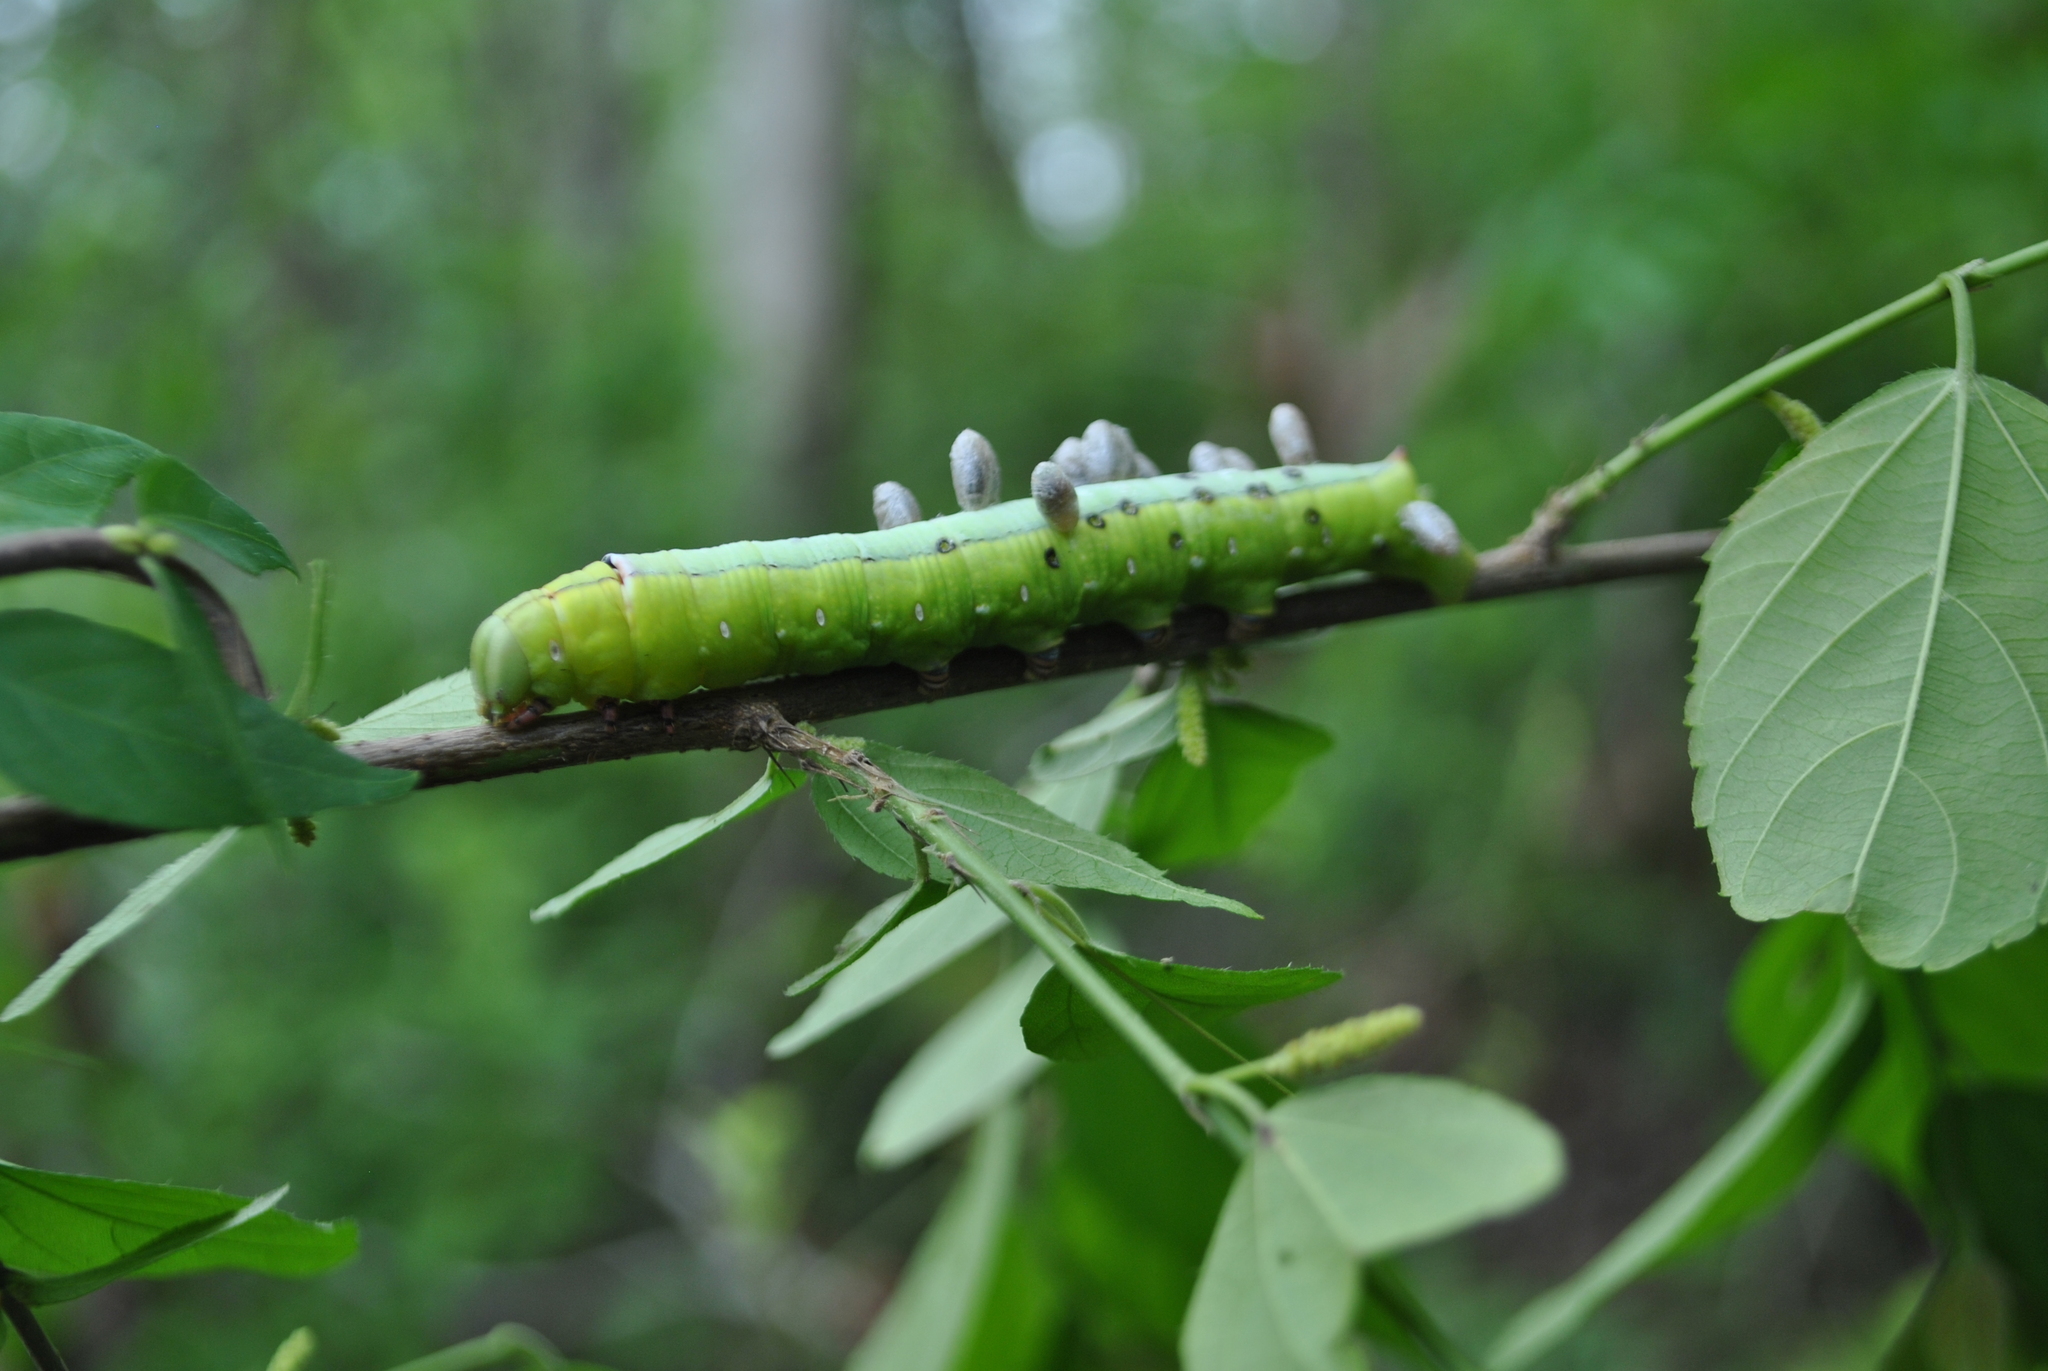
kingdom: Animalia
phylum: Arthropoda
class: Insecta
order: Lepidoptera
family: Sphingidae
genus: Erinnyis
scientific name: Erinnyis ello
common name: Ello sphinx
